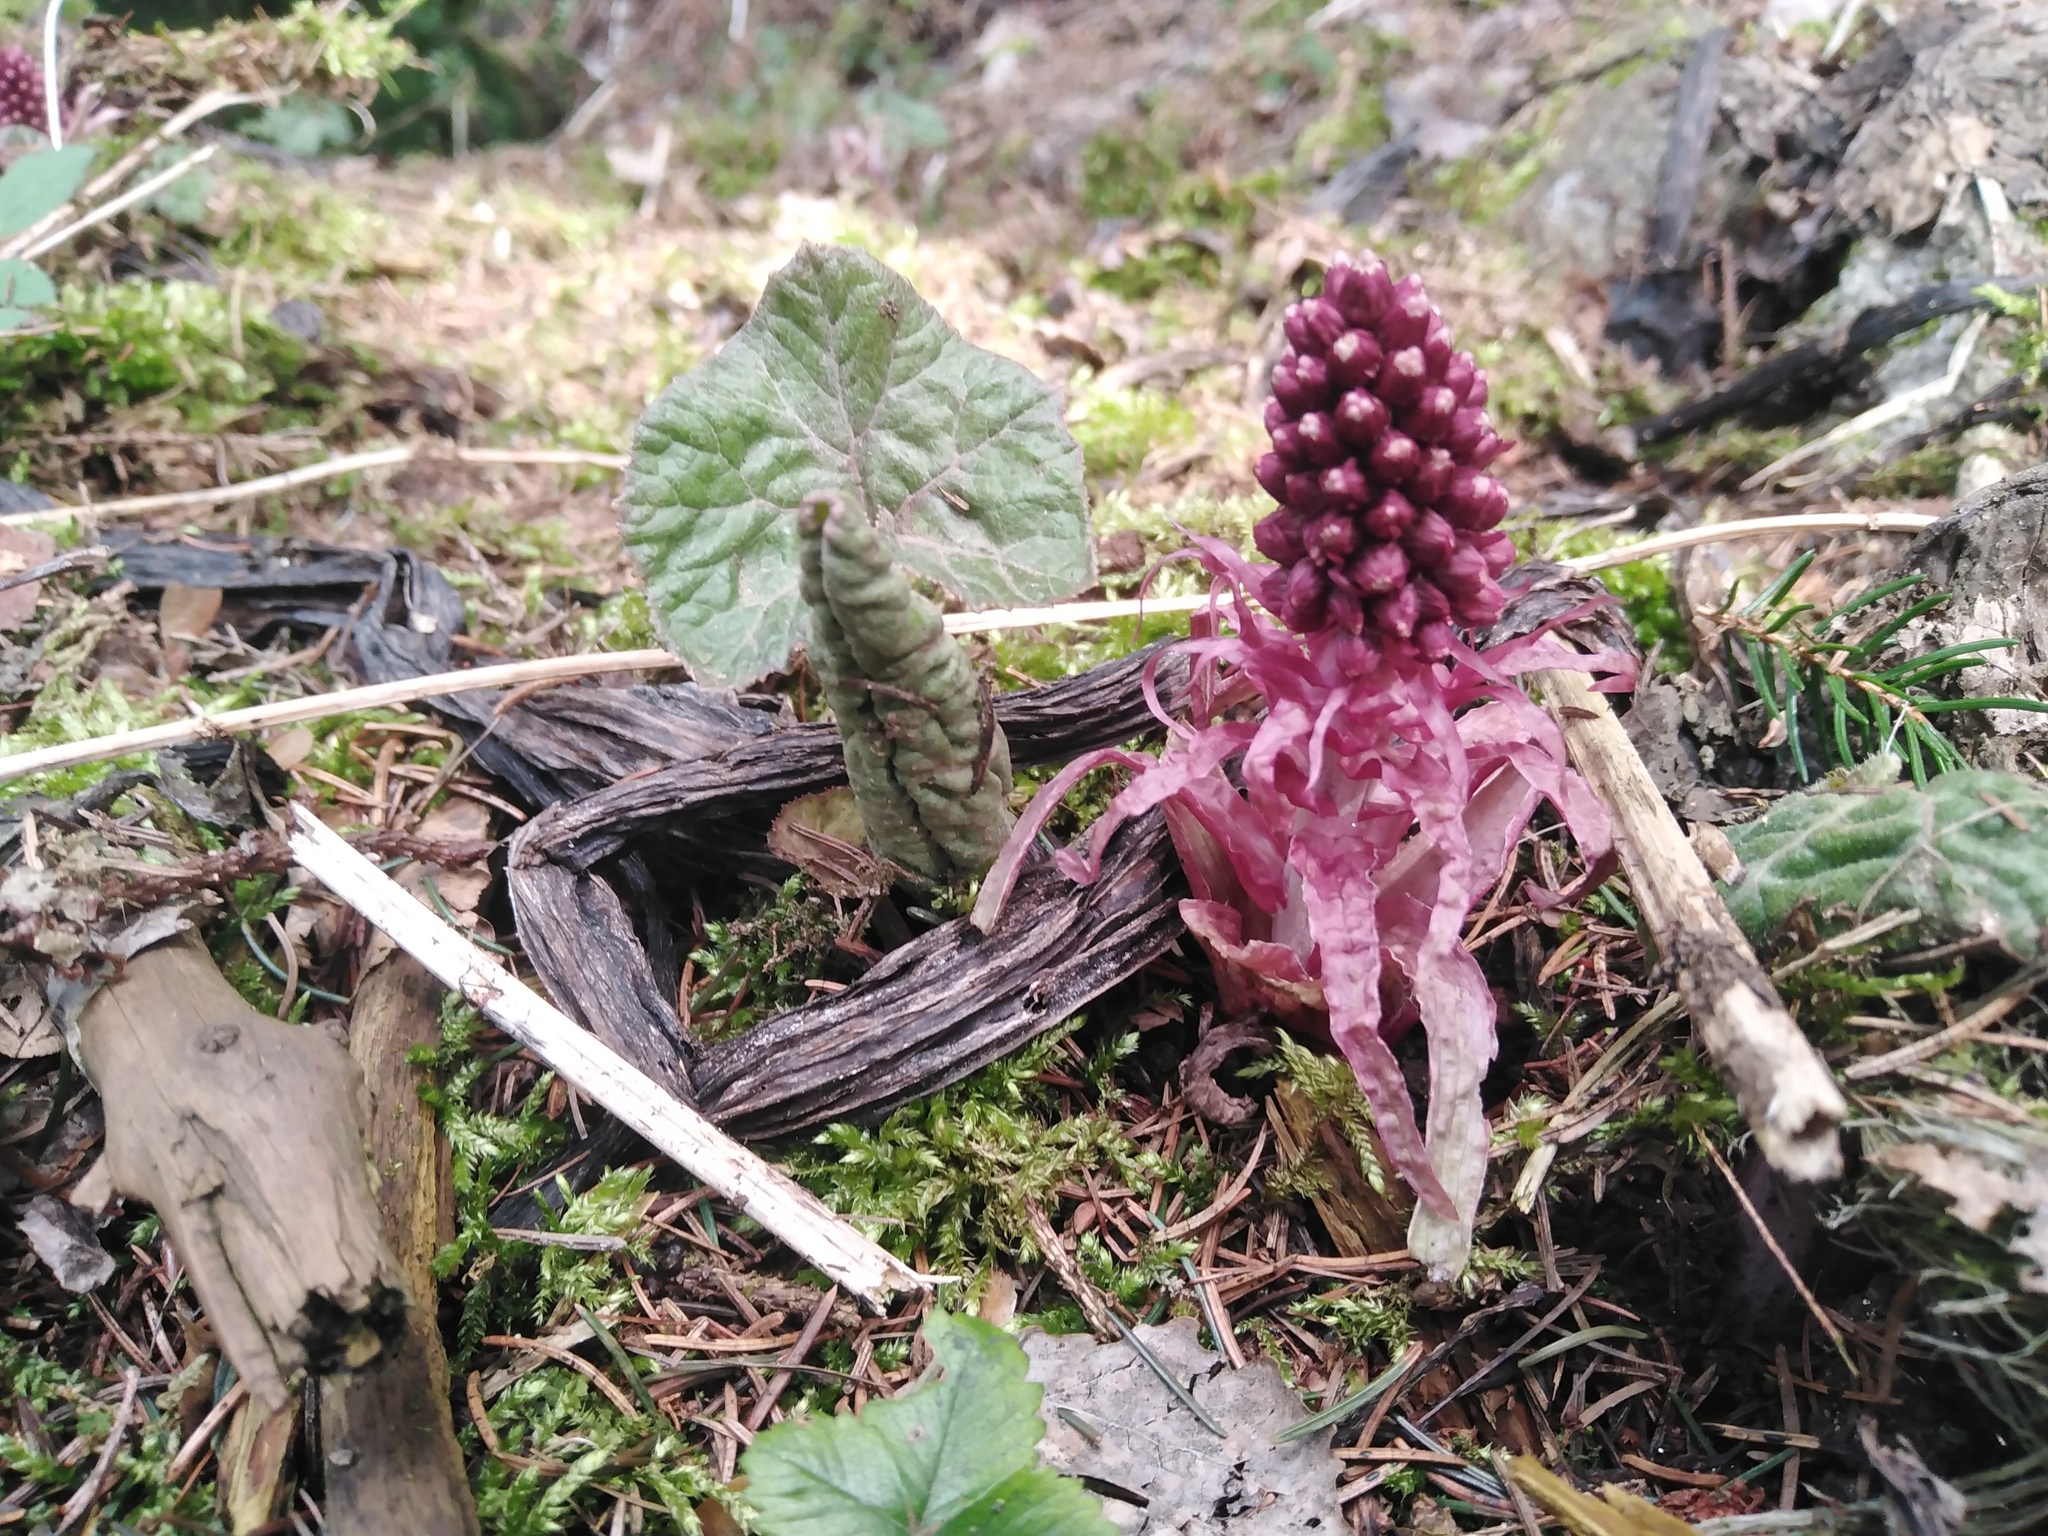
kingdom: Plantae
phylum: Tracheophyta
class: Magnoliopsida
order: Asterales
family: Asteraceae
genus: Petasites
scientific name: Petasites hybridus
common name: Butterbur
